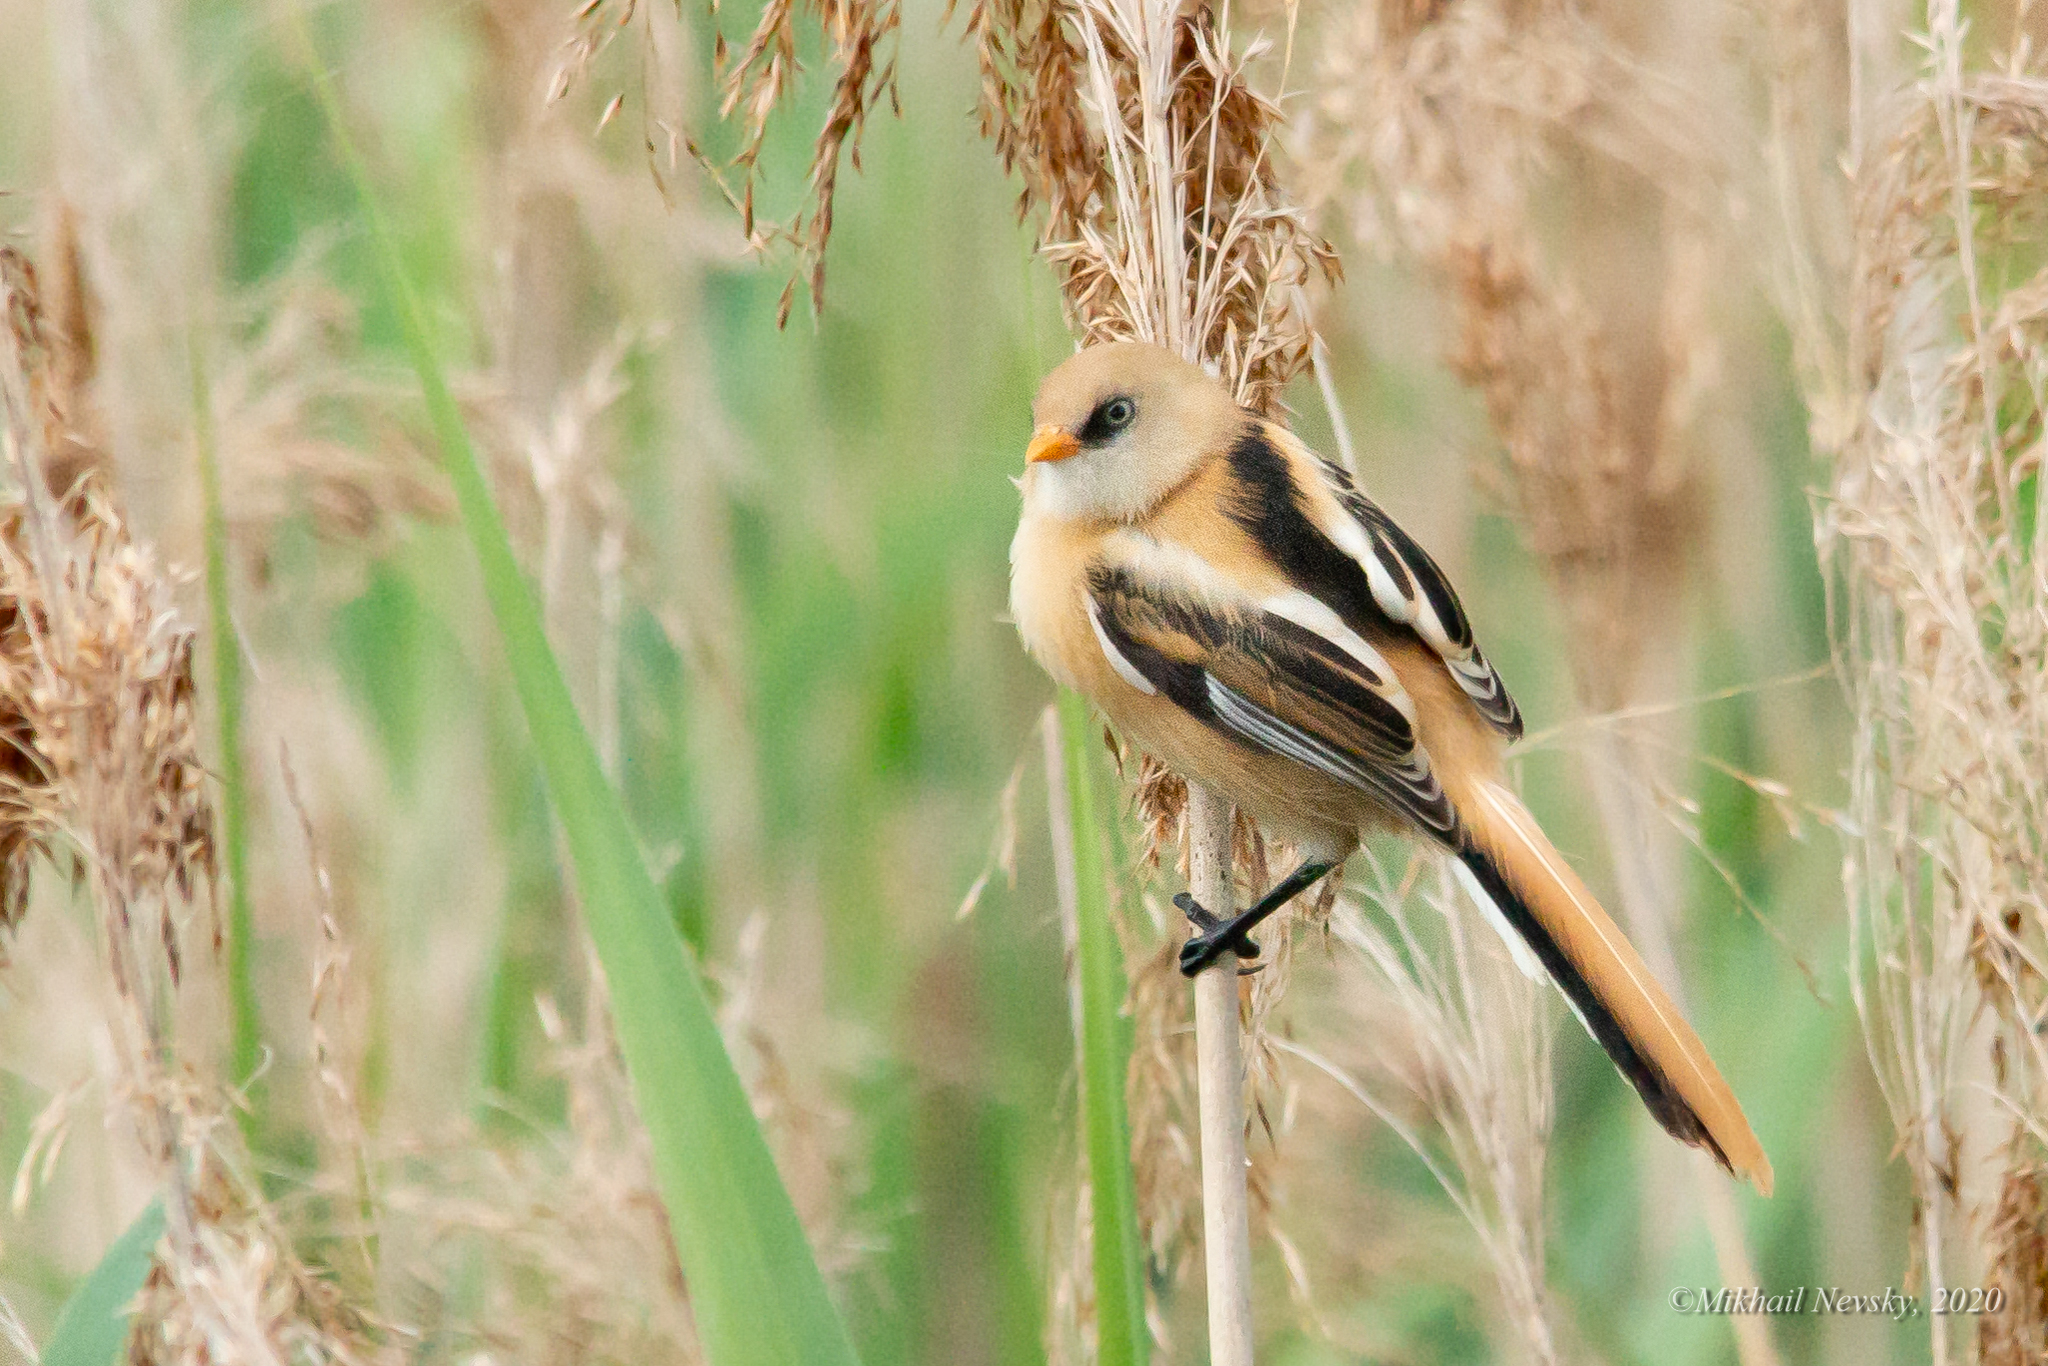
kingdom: Animalia
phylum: Chordata
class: Aves
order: Passeriformes
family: Panuridae
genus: Panurus
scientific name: Panurus biarmicus
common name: Bearded reedling
